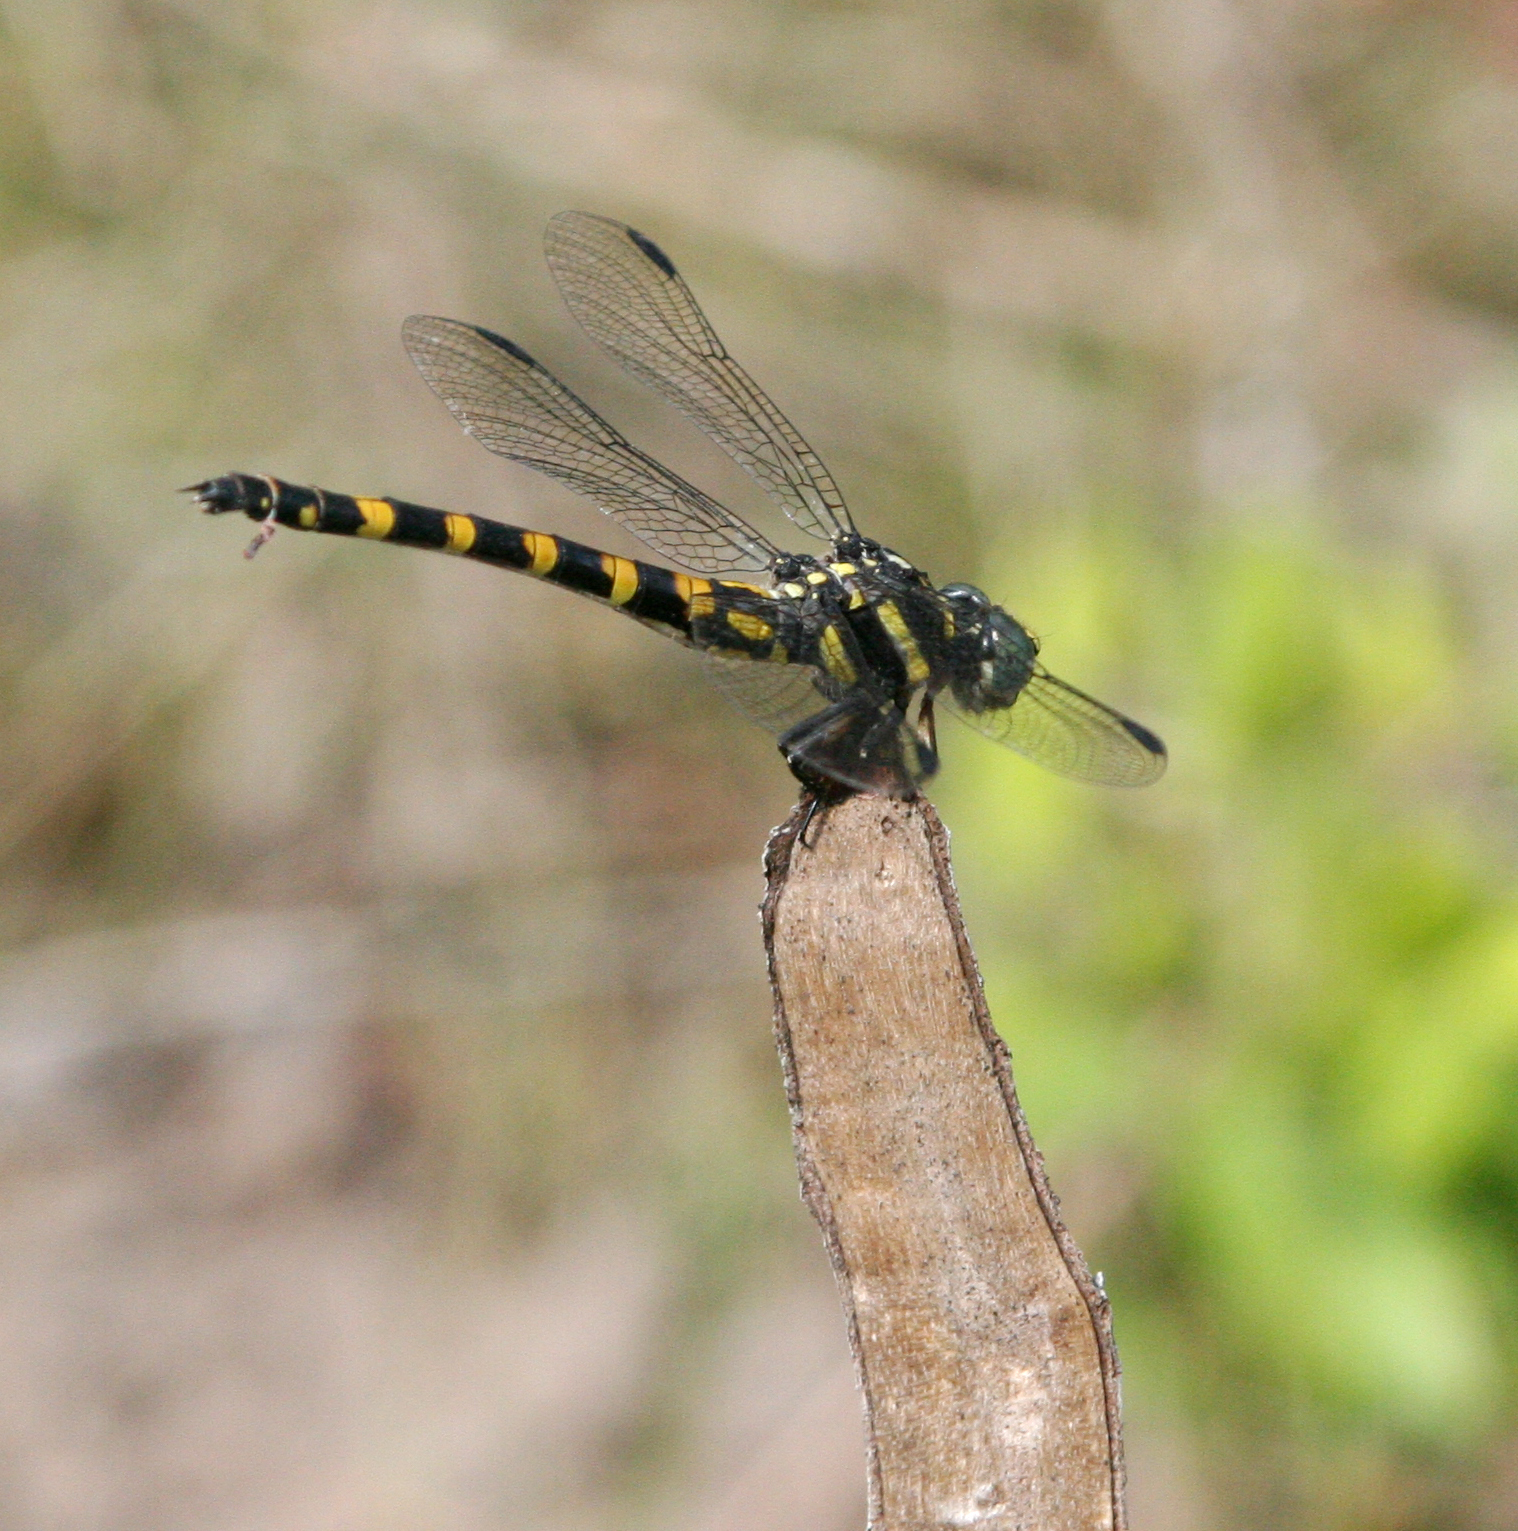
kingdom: Animalia
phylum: Arthropoda
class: Insecta
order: Odonata
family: Gomphidae
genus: Paragomphus
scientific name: Paragomphus capricornis
